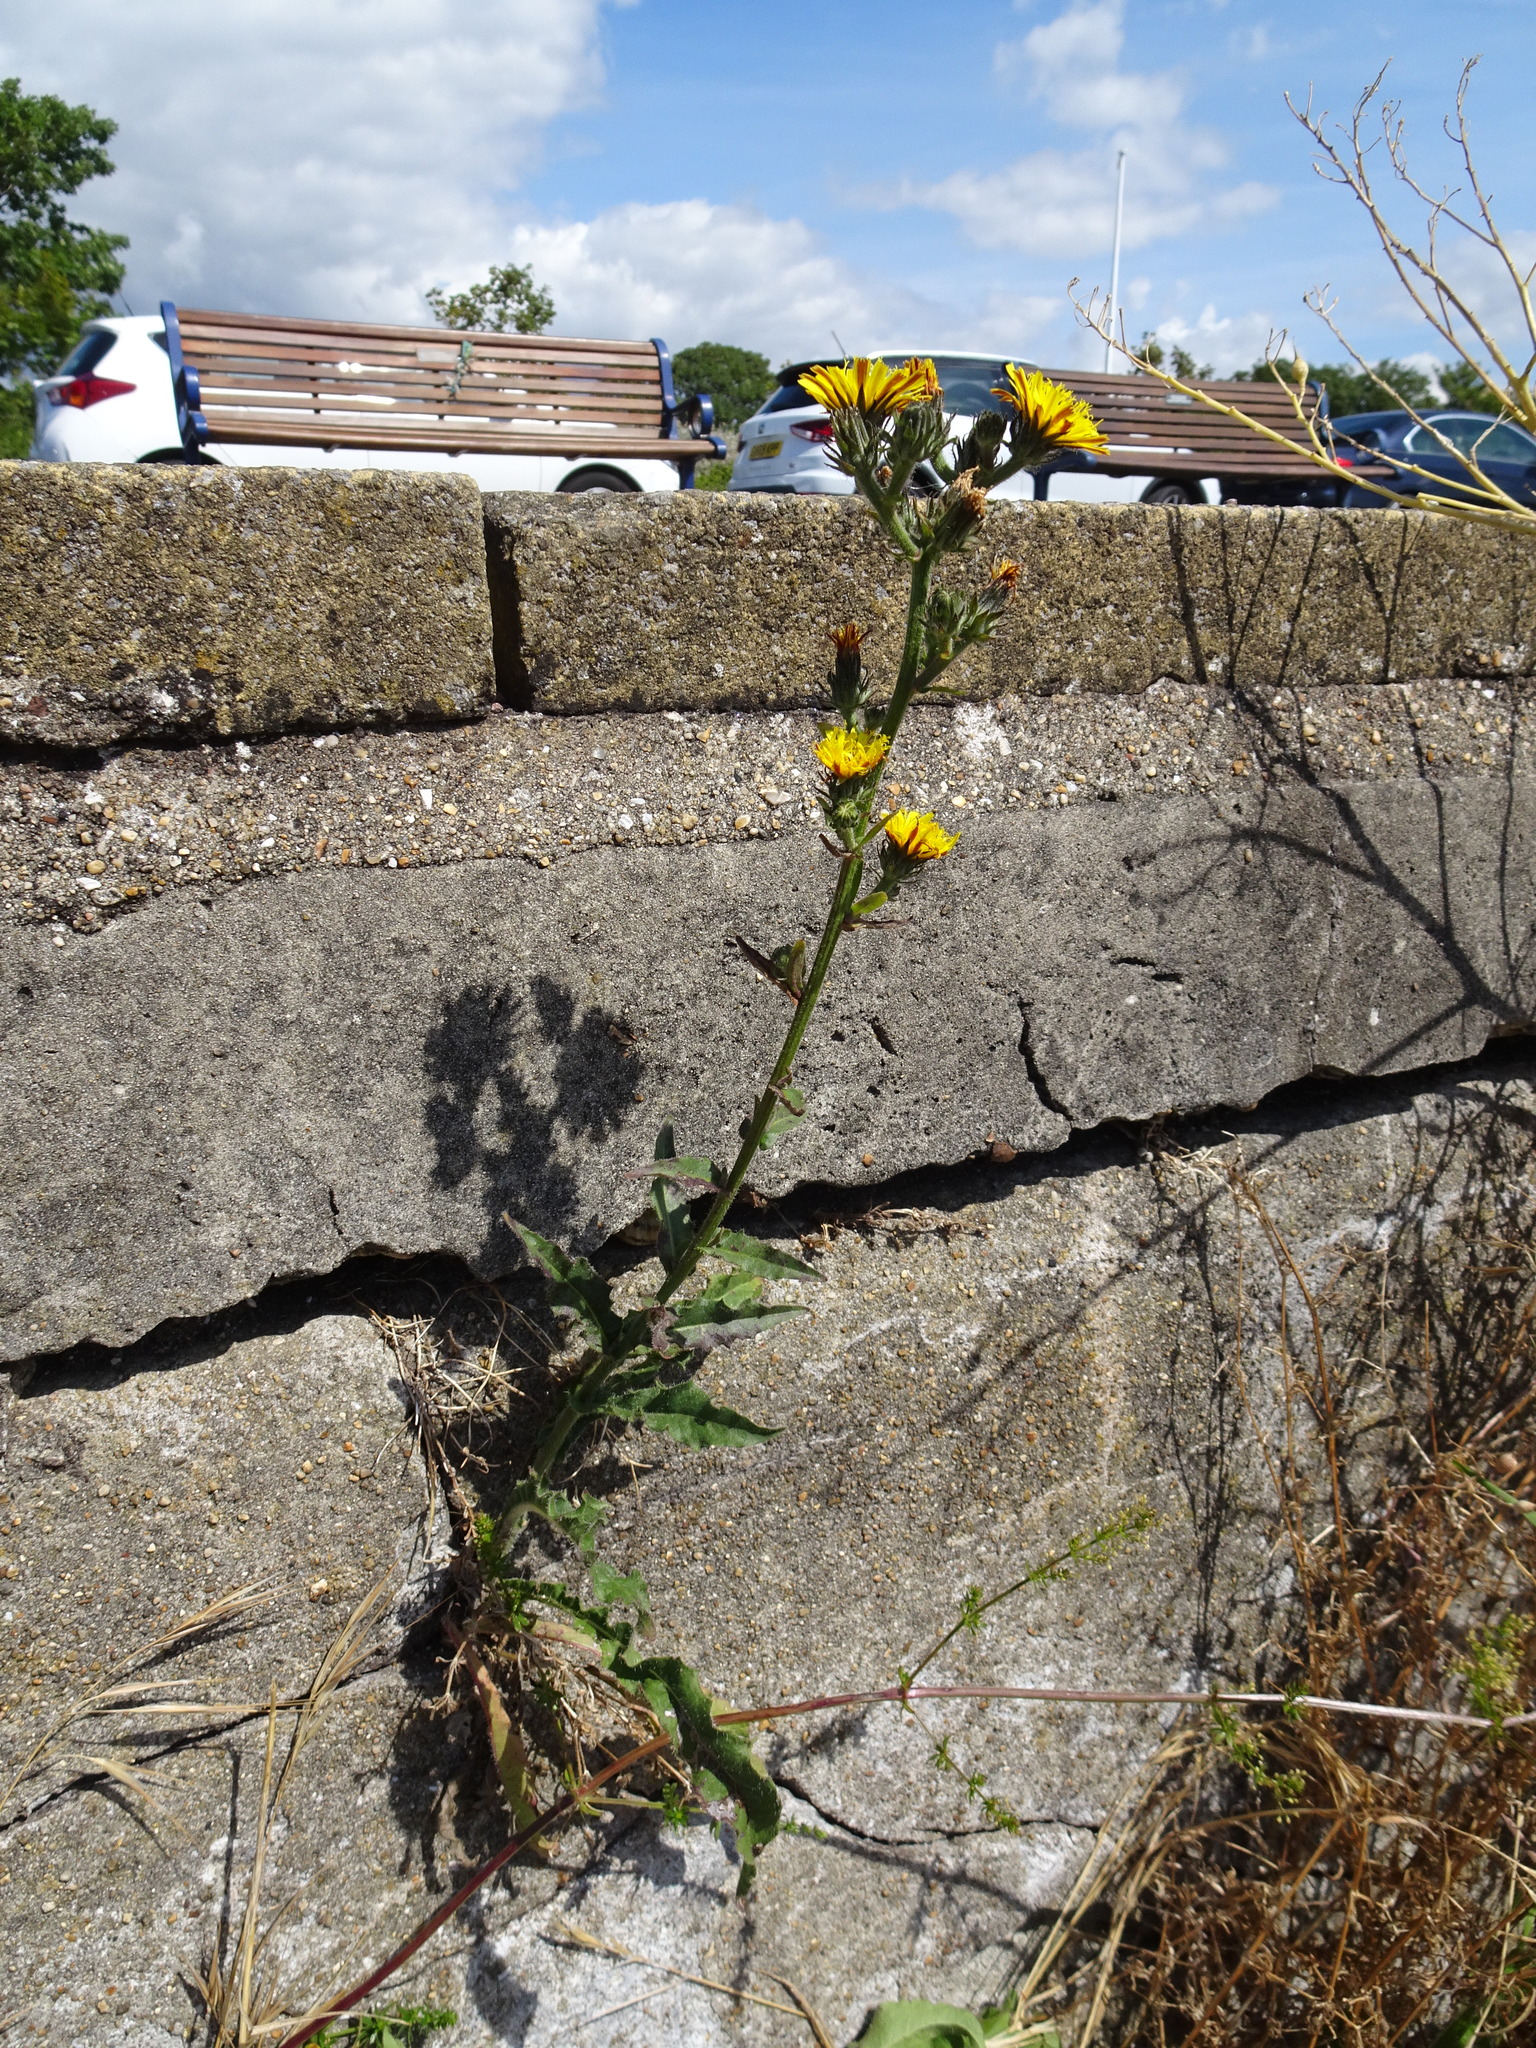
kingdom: Plantae
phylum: Tracheophyta
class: Magnoliopsida
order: Asterales
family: Asteraceae
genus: Picris
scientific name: Picris hieracioides
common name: Hawkweed oxtongue
